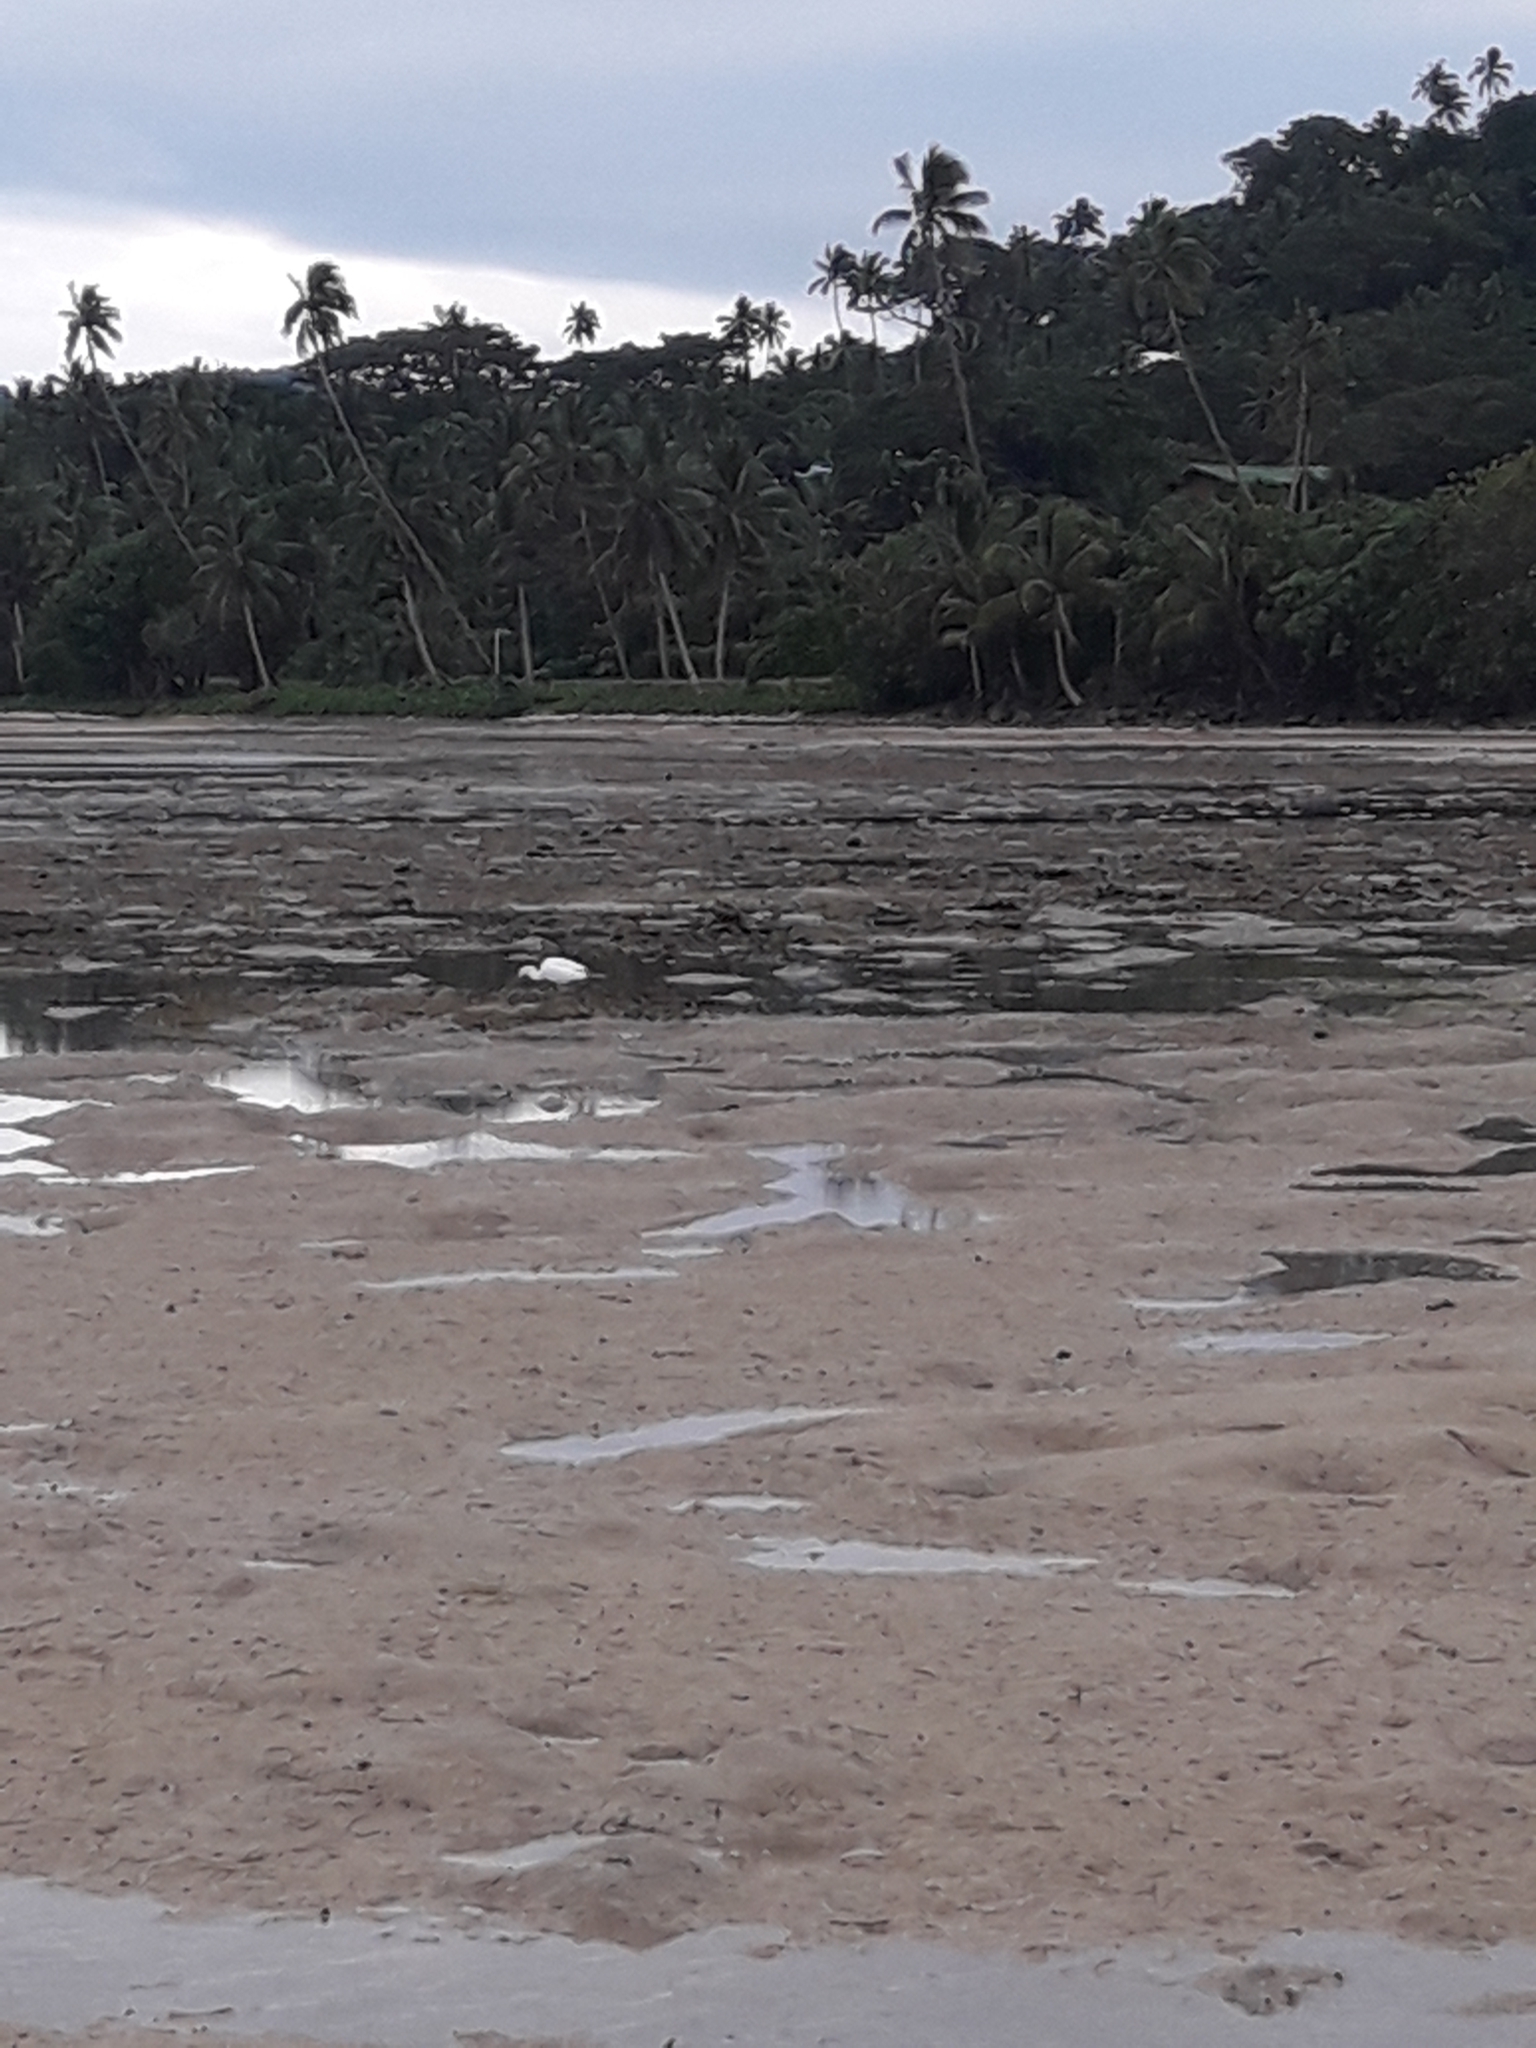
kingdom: Animalia
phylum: Chordata
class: Aves
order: Pelecaniformes
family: Ardeidae
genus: Egretta
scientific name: Egretta sacra
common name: Pacific reef heron
